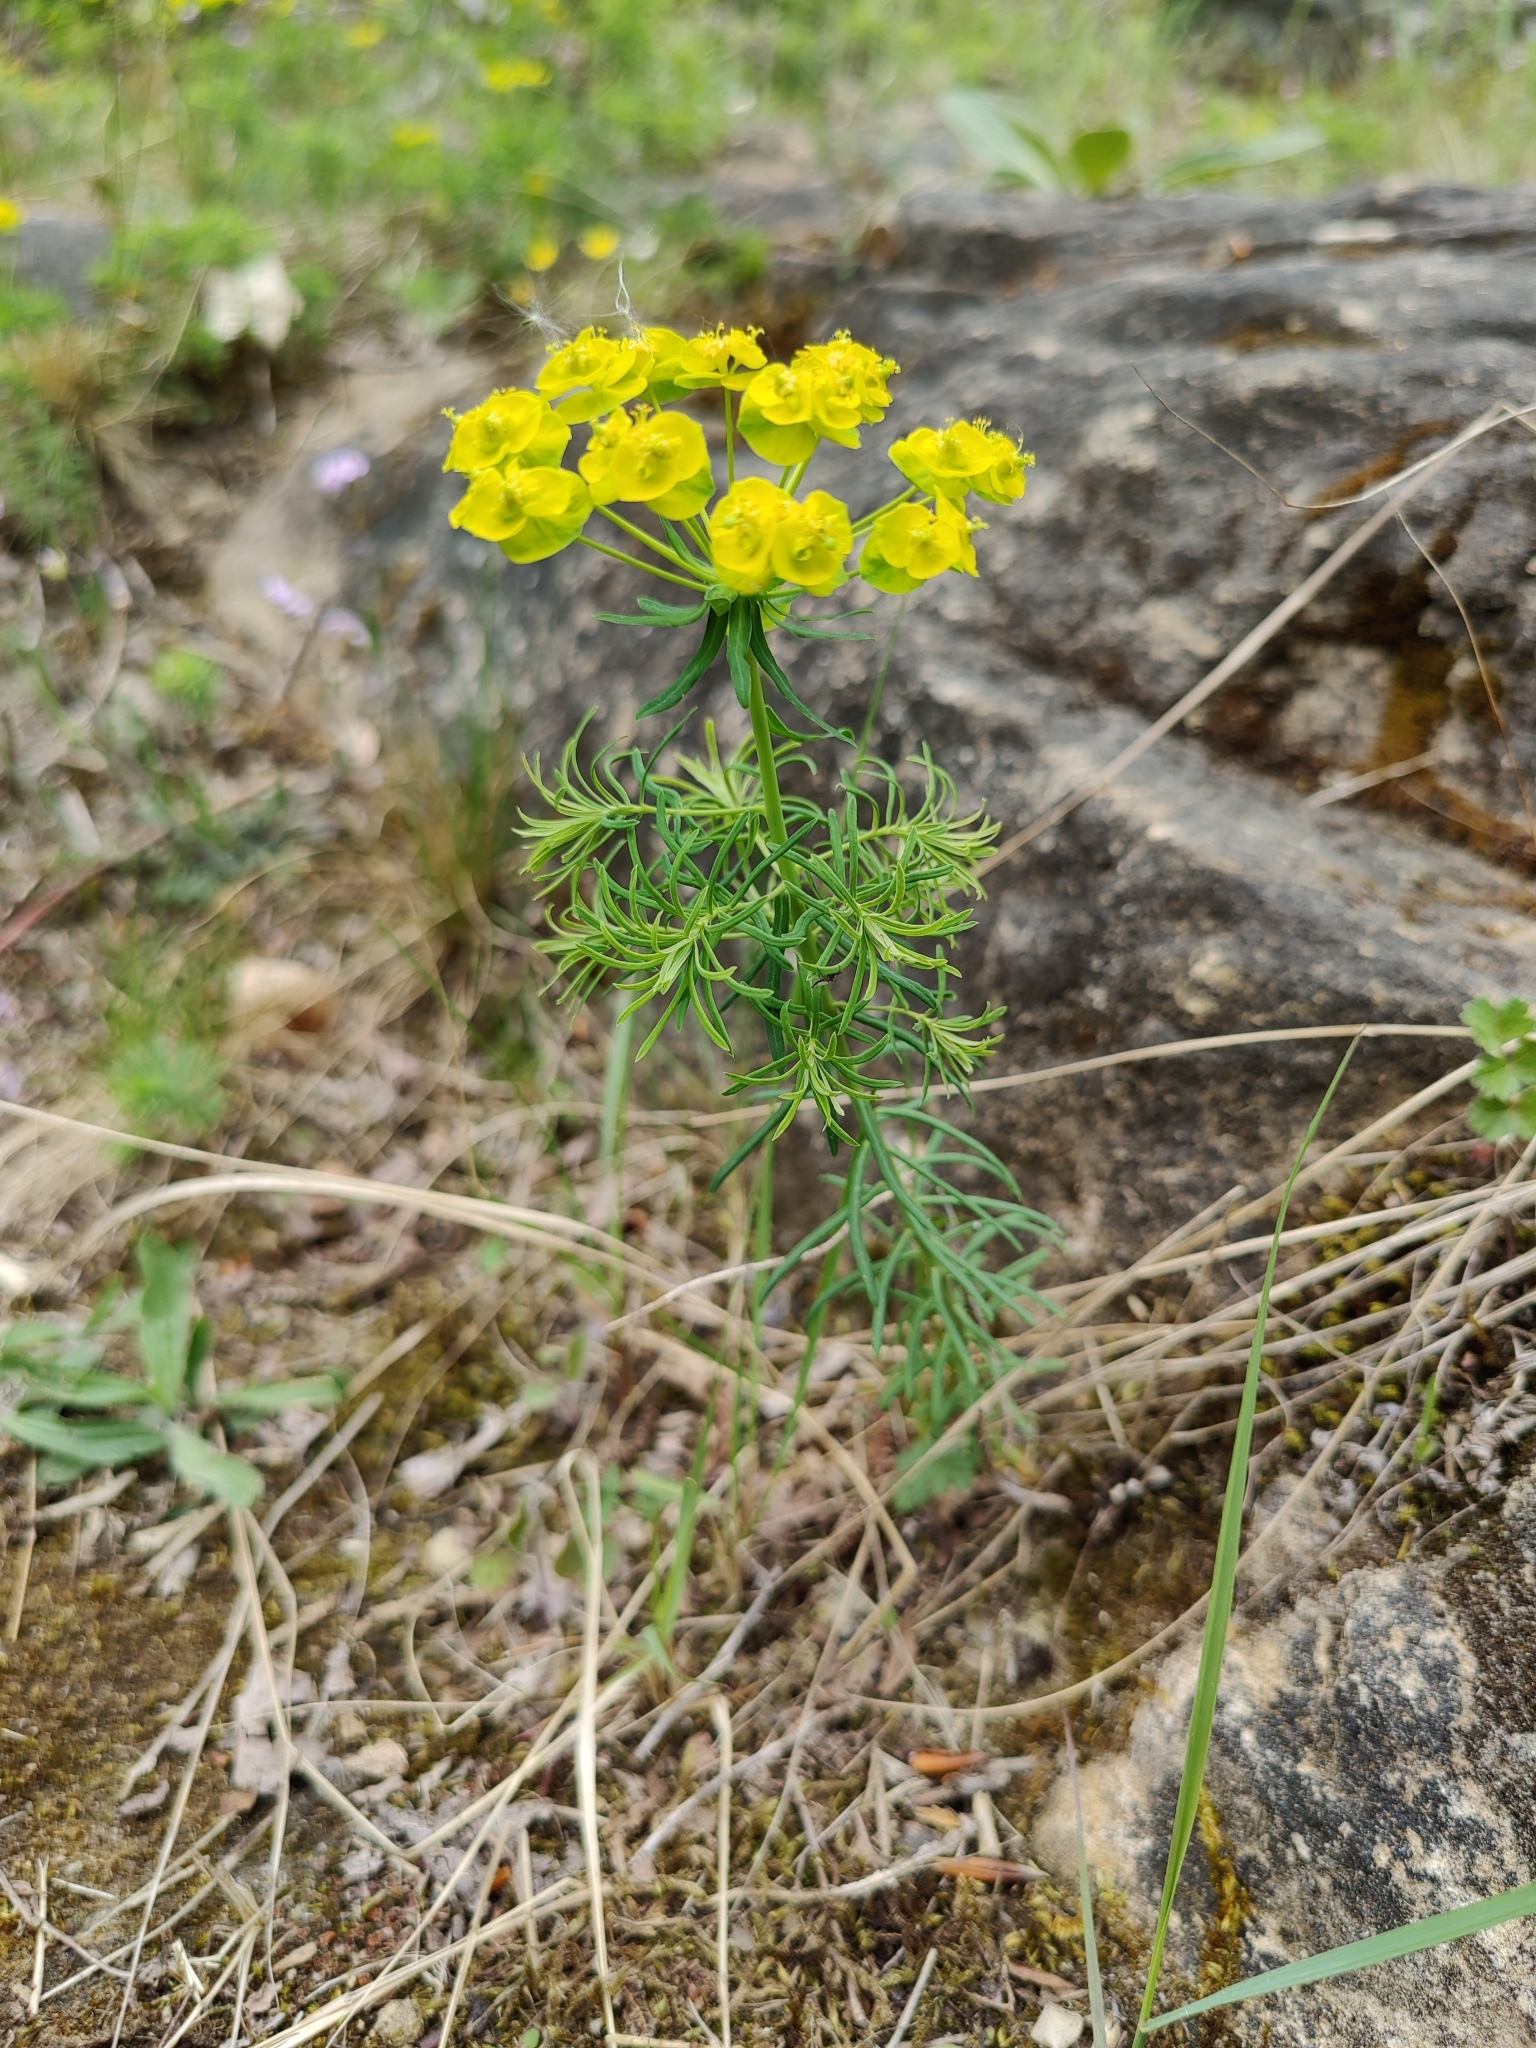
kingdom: Plantae
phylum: Tracheophyta
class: Magnoliopsida
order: Malpighiales
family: Euphorbiaceae
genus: Euphorbia
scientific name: Euphorbia cyparissias
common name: Cypress spurge
